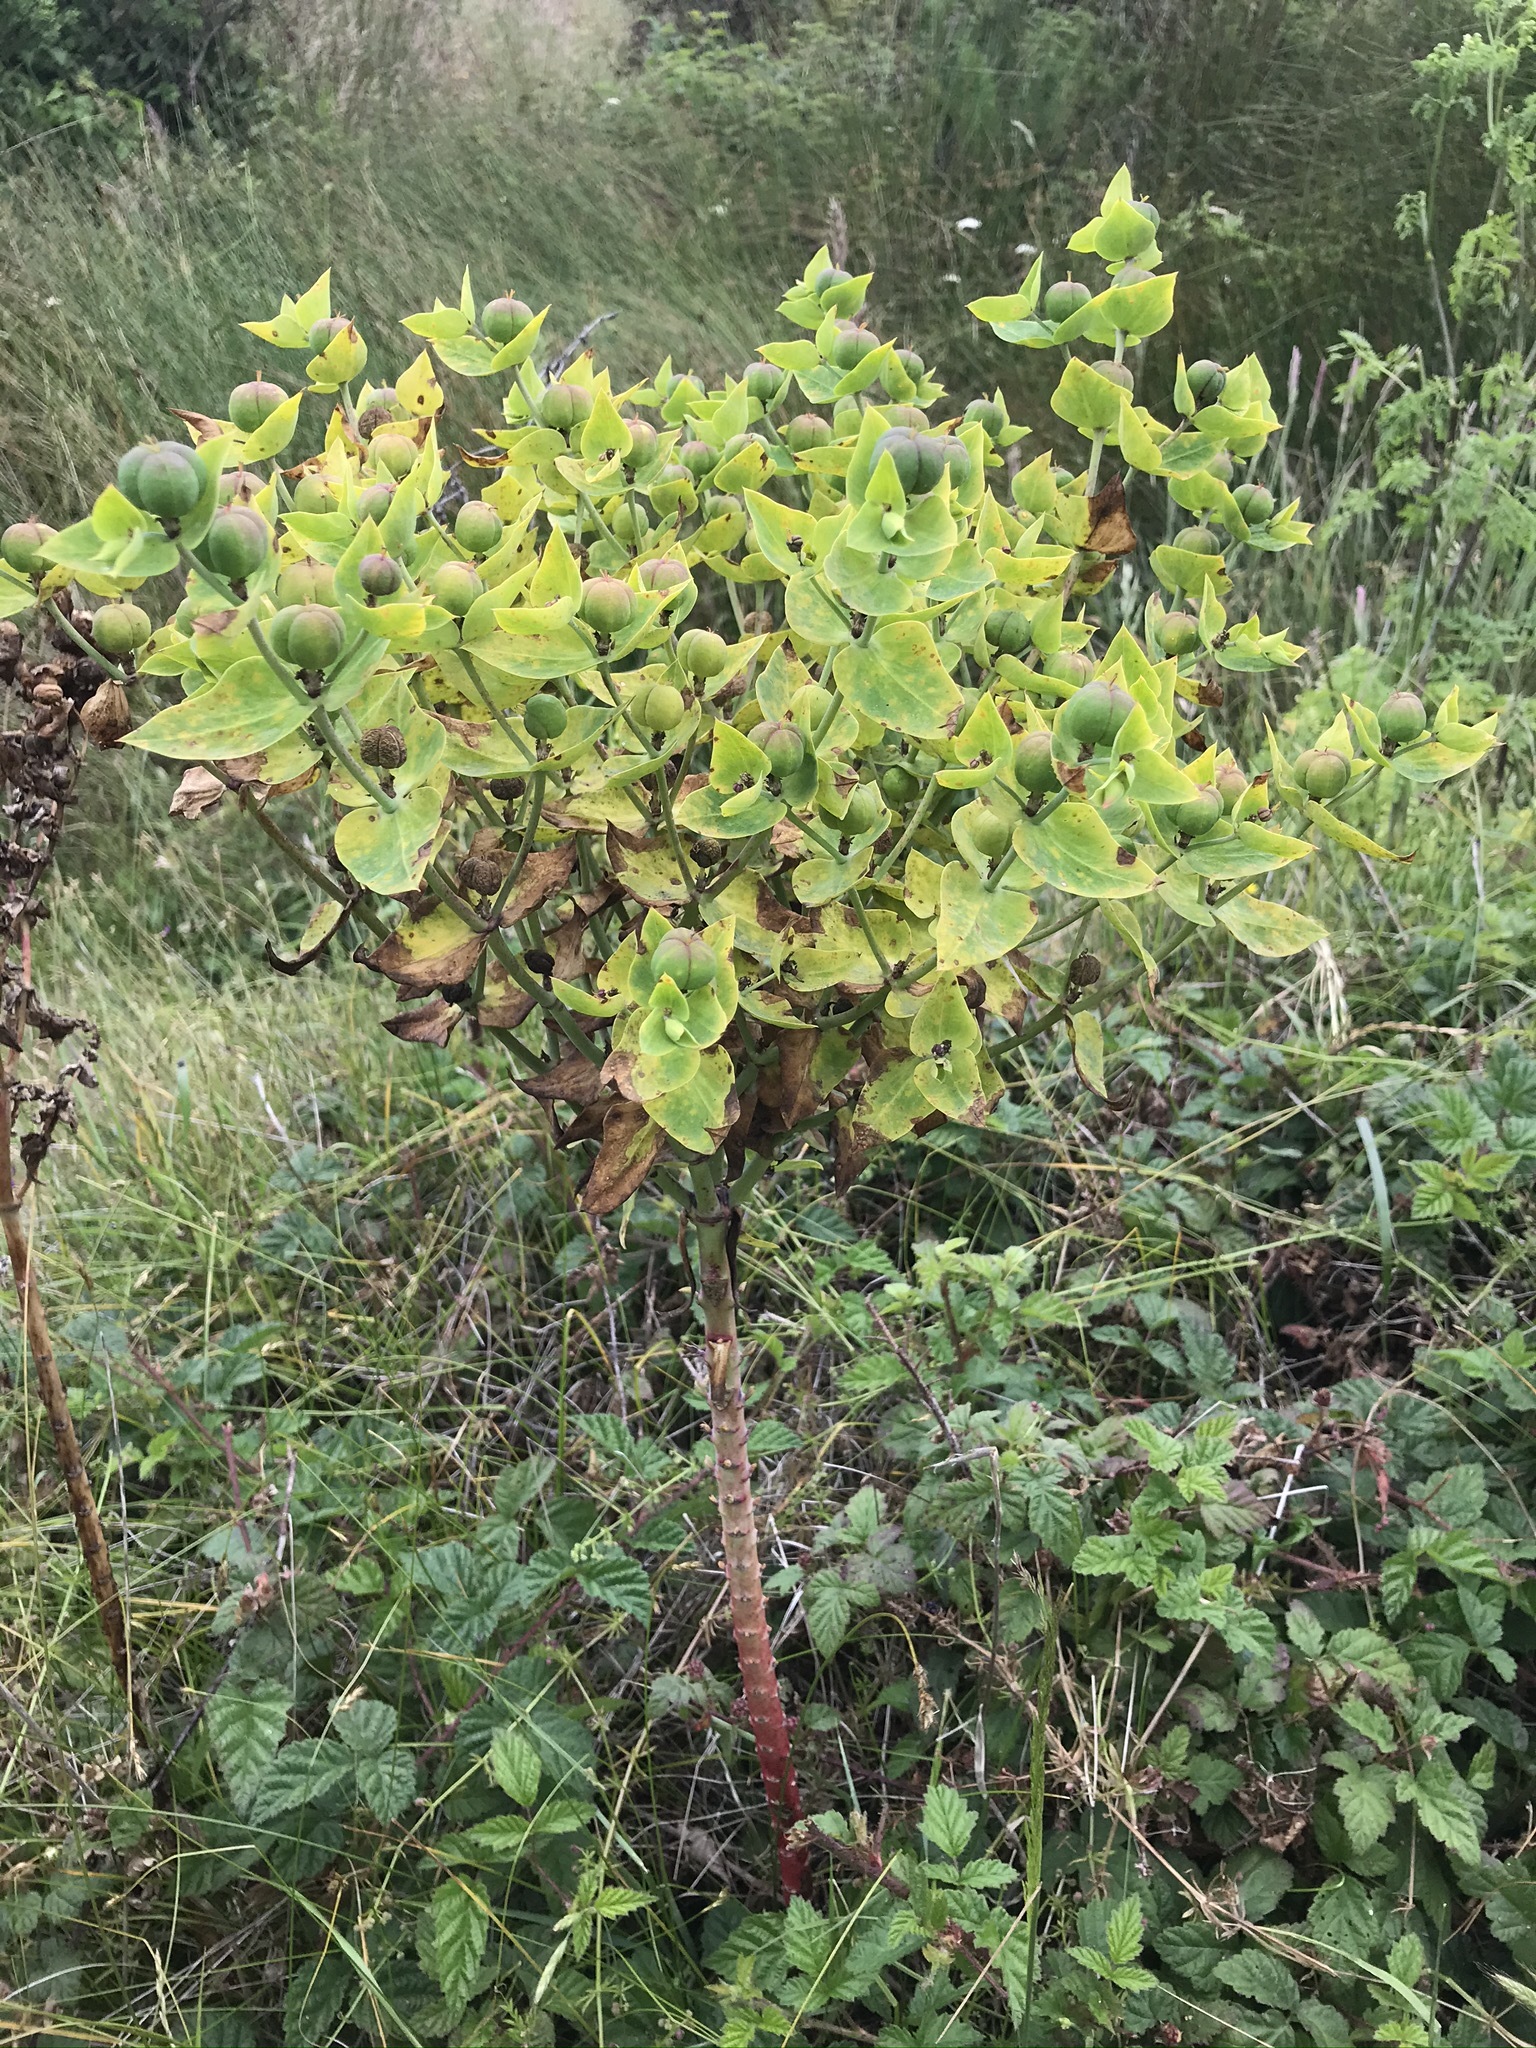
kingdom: Plantae
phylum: Tracheophyta
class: Magnoliopsida
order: Malpighiales
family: Euphorbiaceae
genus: Euphorbia
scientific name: Euphorbia lathyris
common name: Caper spurge
